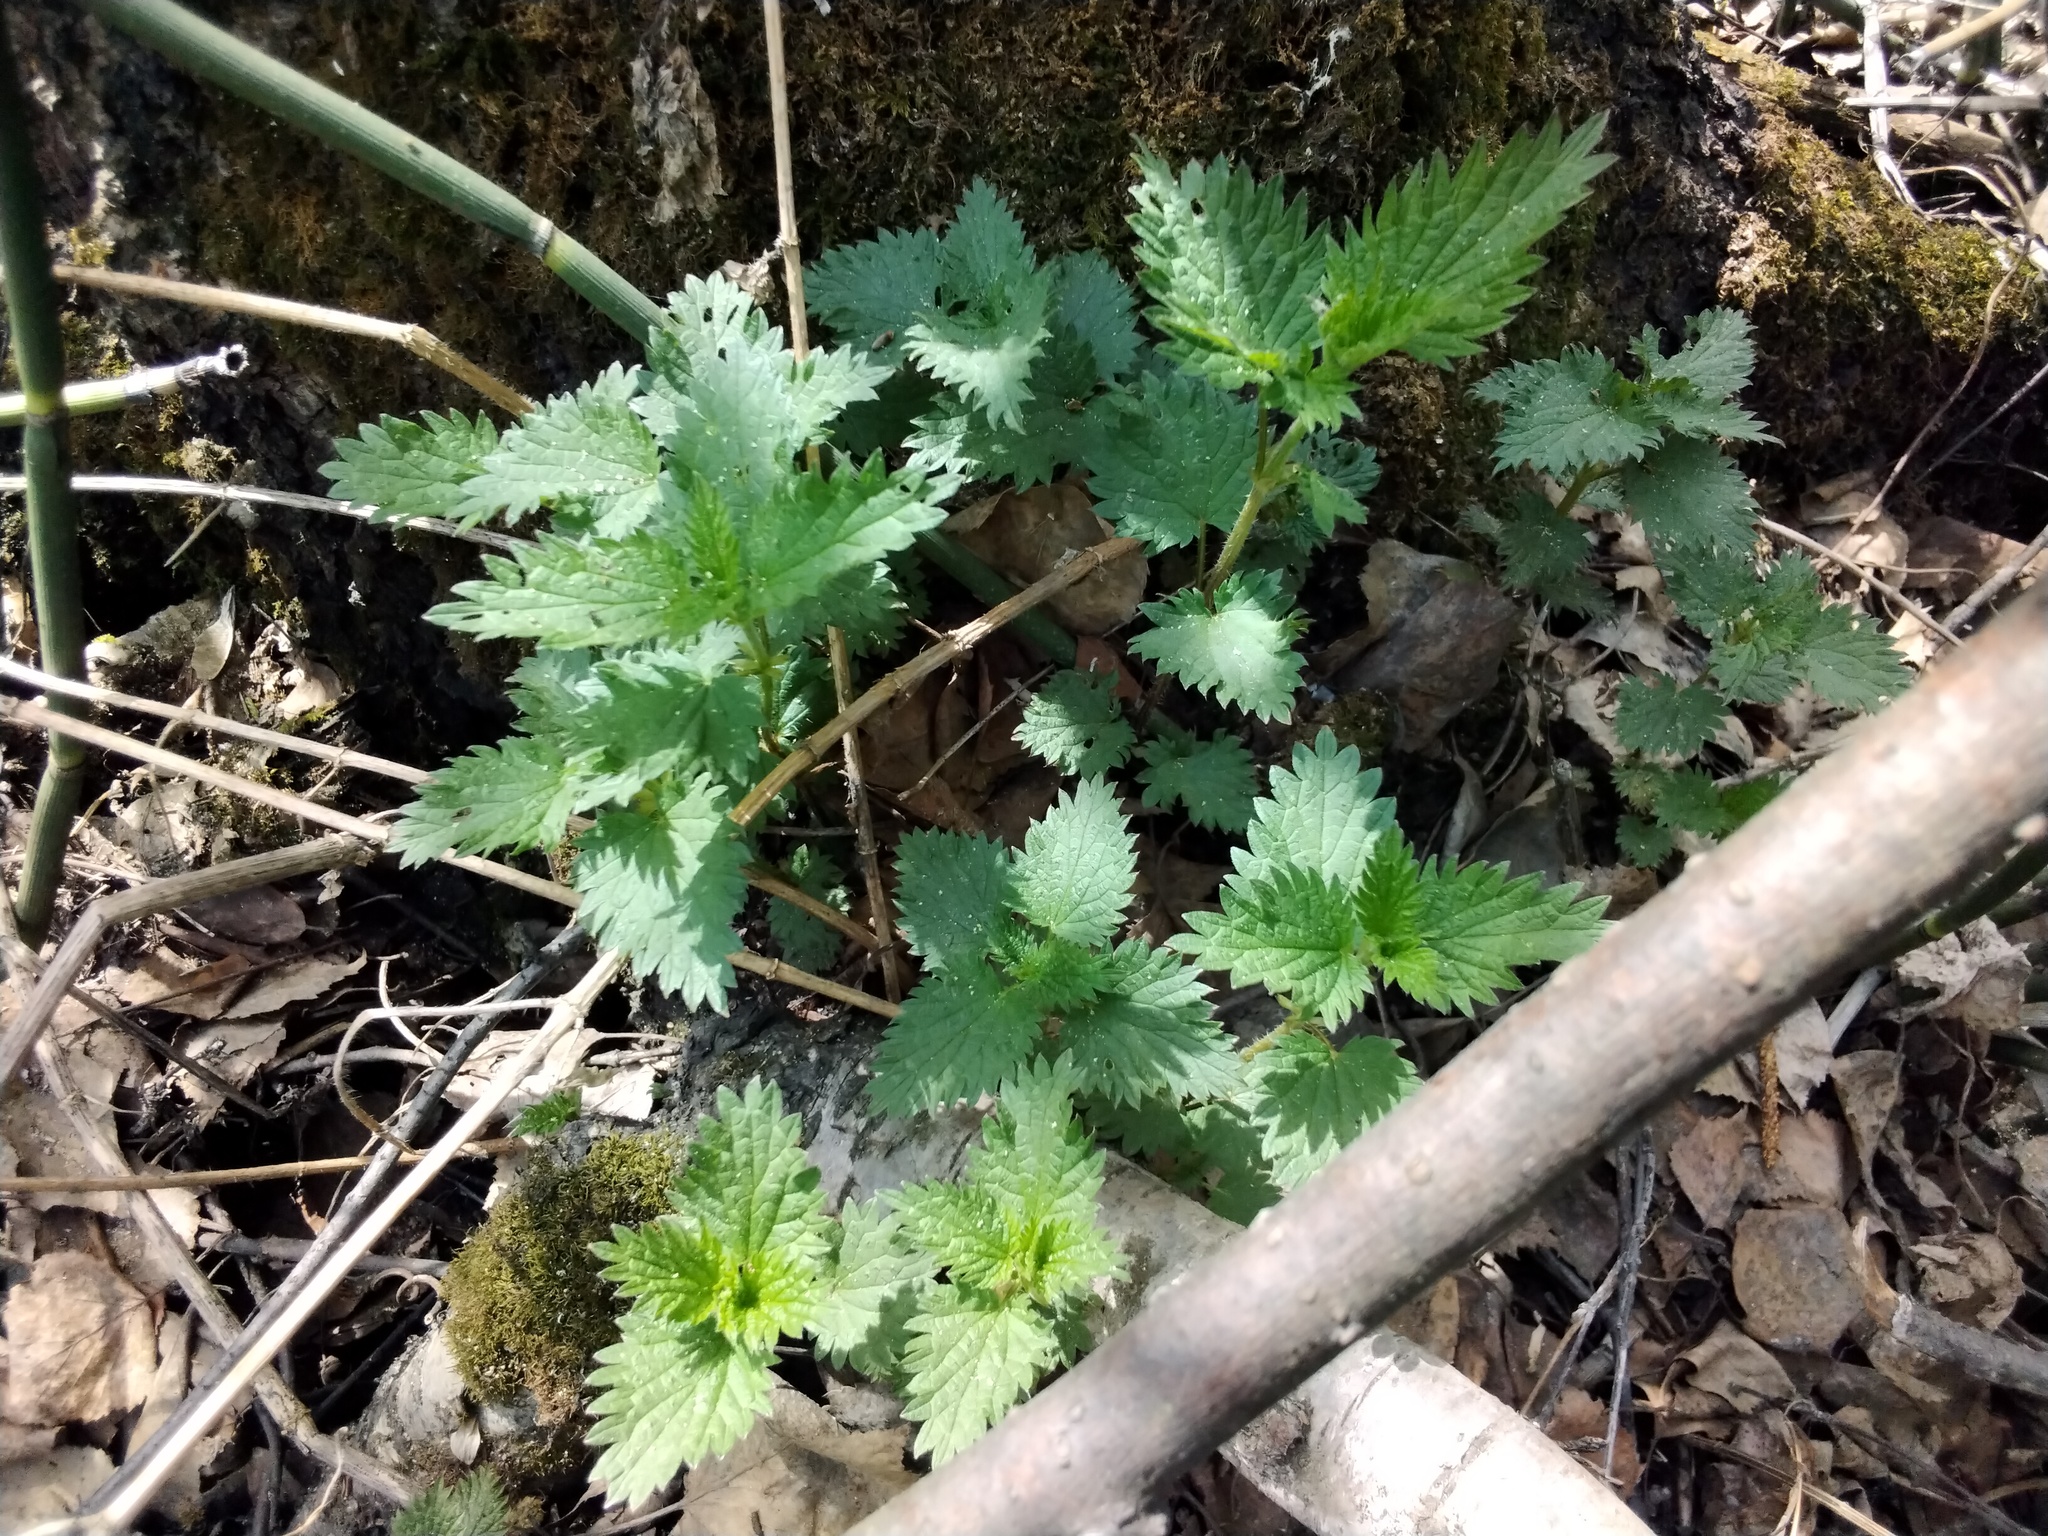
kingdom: Plantae
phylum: Tracheophyta
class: Magnoliopsida
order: Rosales
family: Urticaceae
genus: Urtica
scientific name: Urtica dioica
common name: Common nettle
